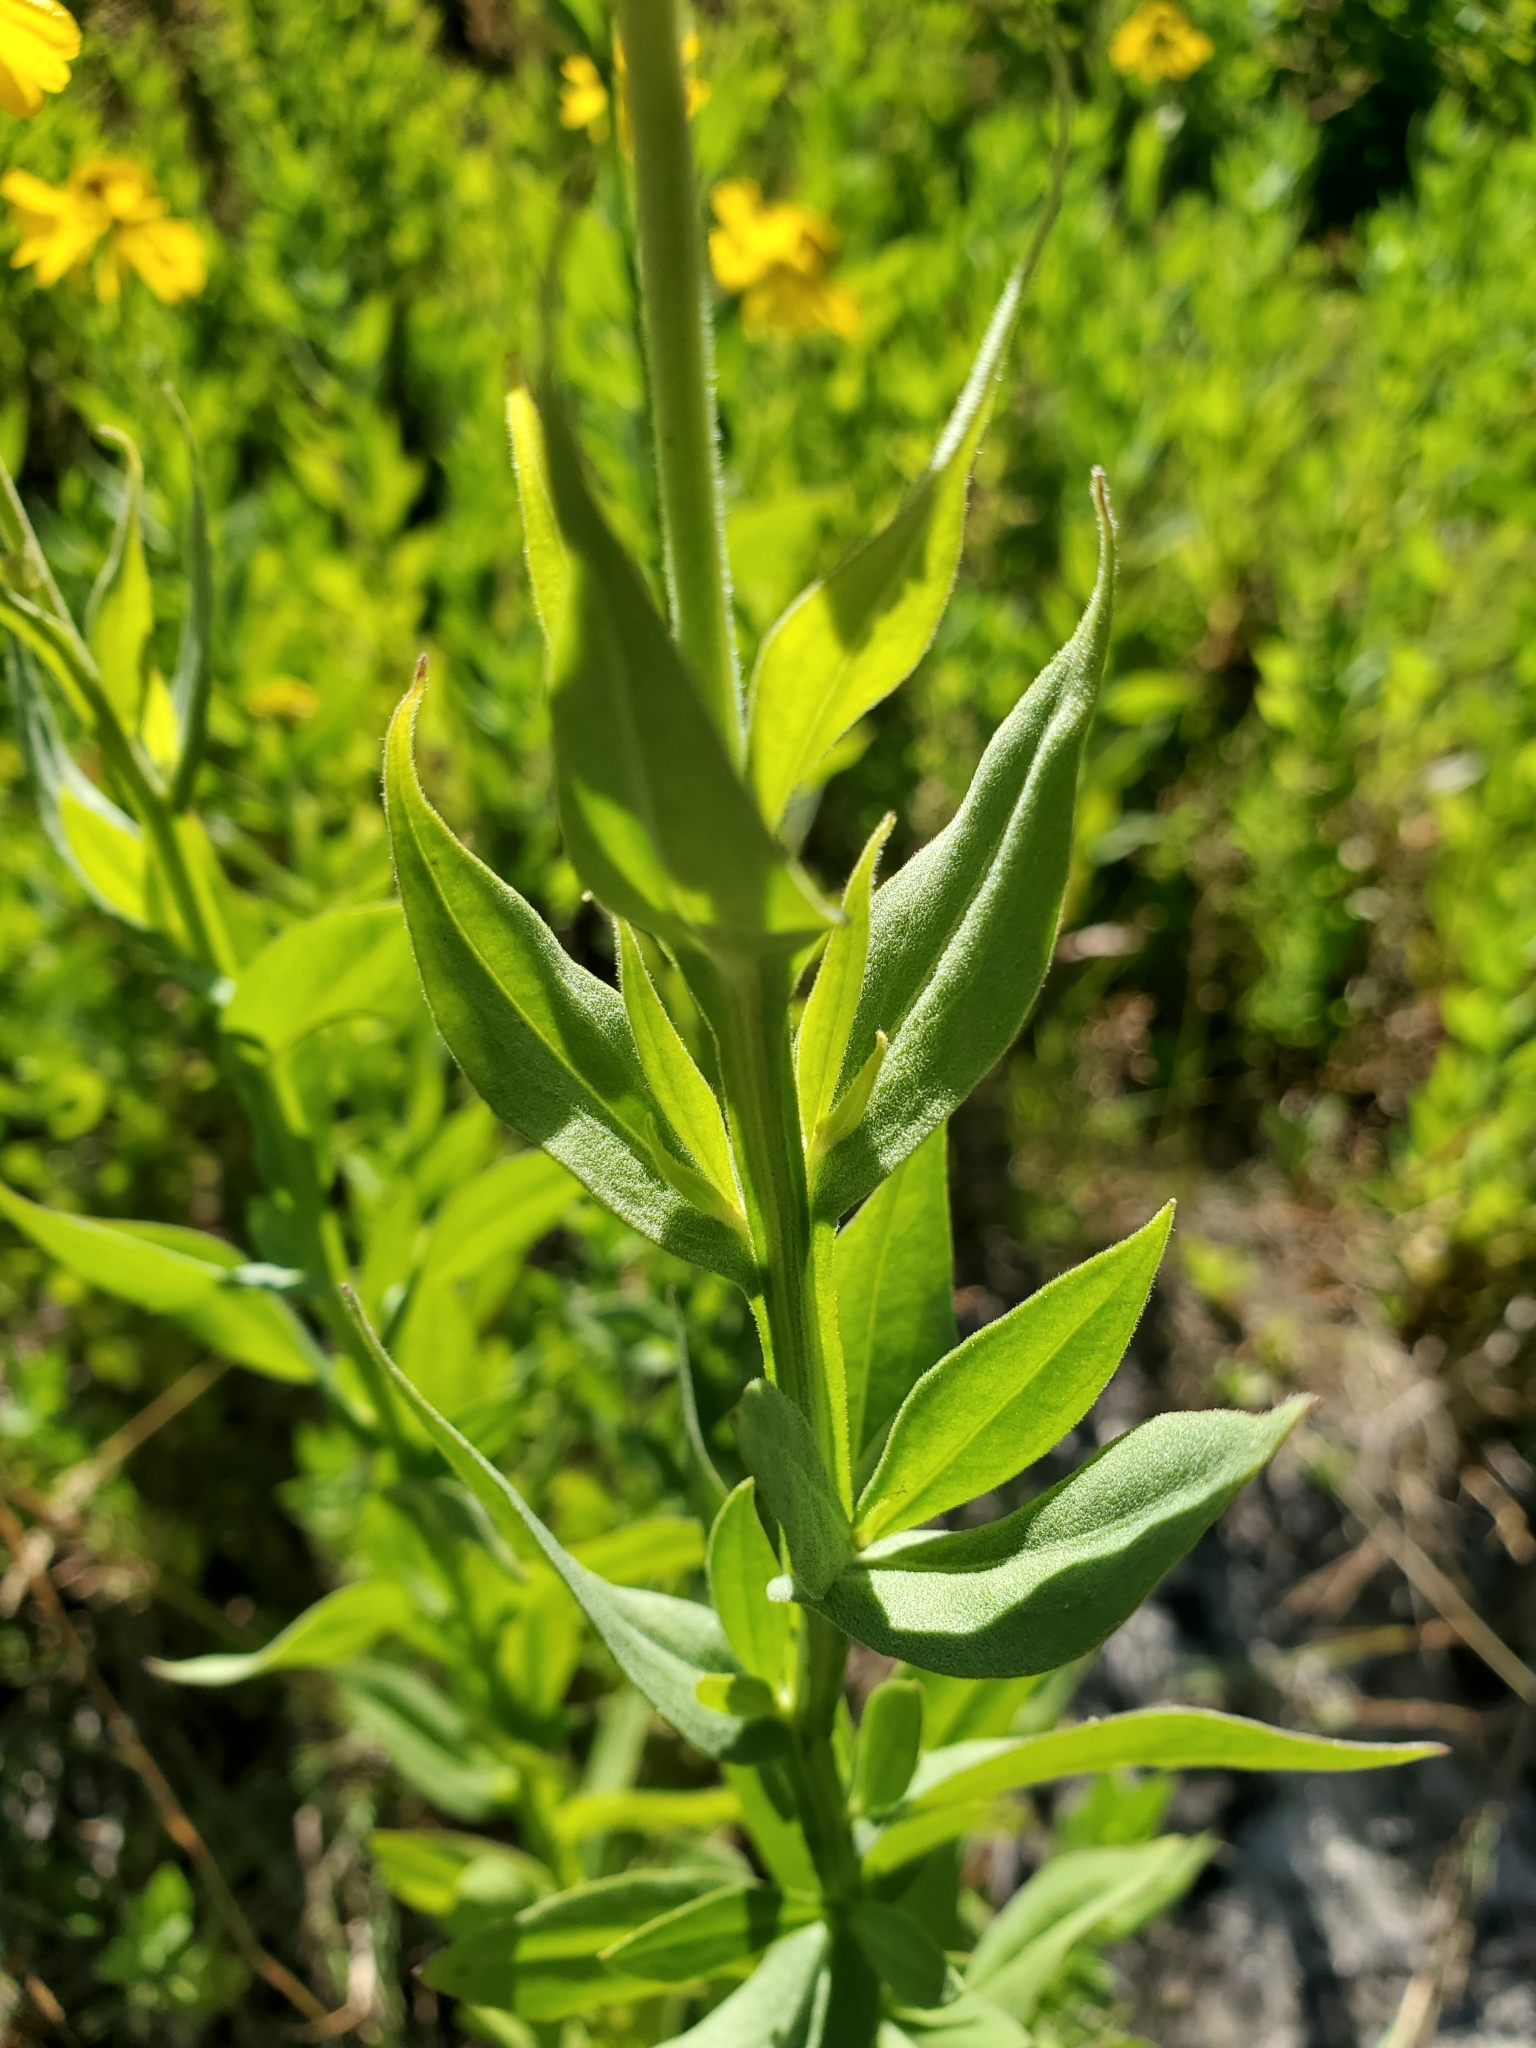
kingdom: Plantae
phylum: Tracheophyta
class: Magnoliopsida
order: Asterales
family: Asteraceae
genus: Helenium
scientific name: Helenium autumnale
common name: Sneezeweed
